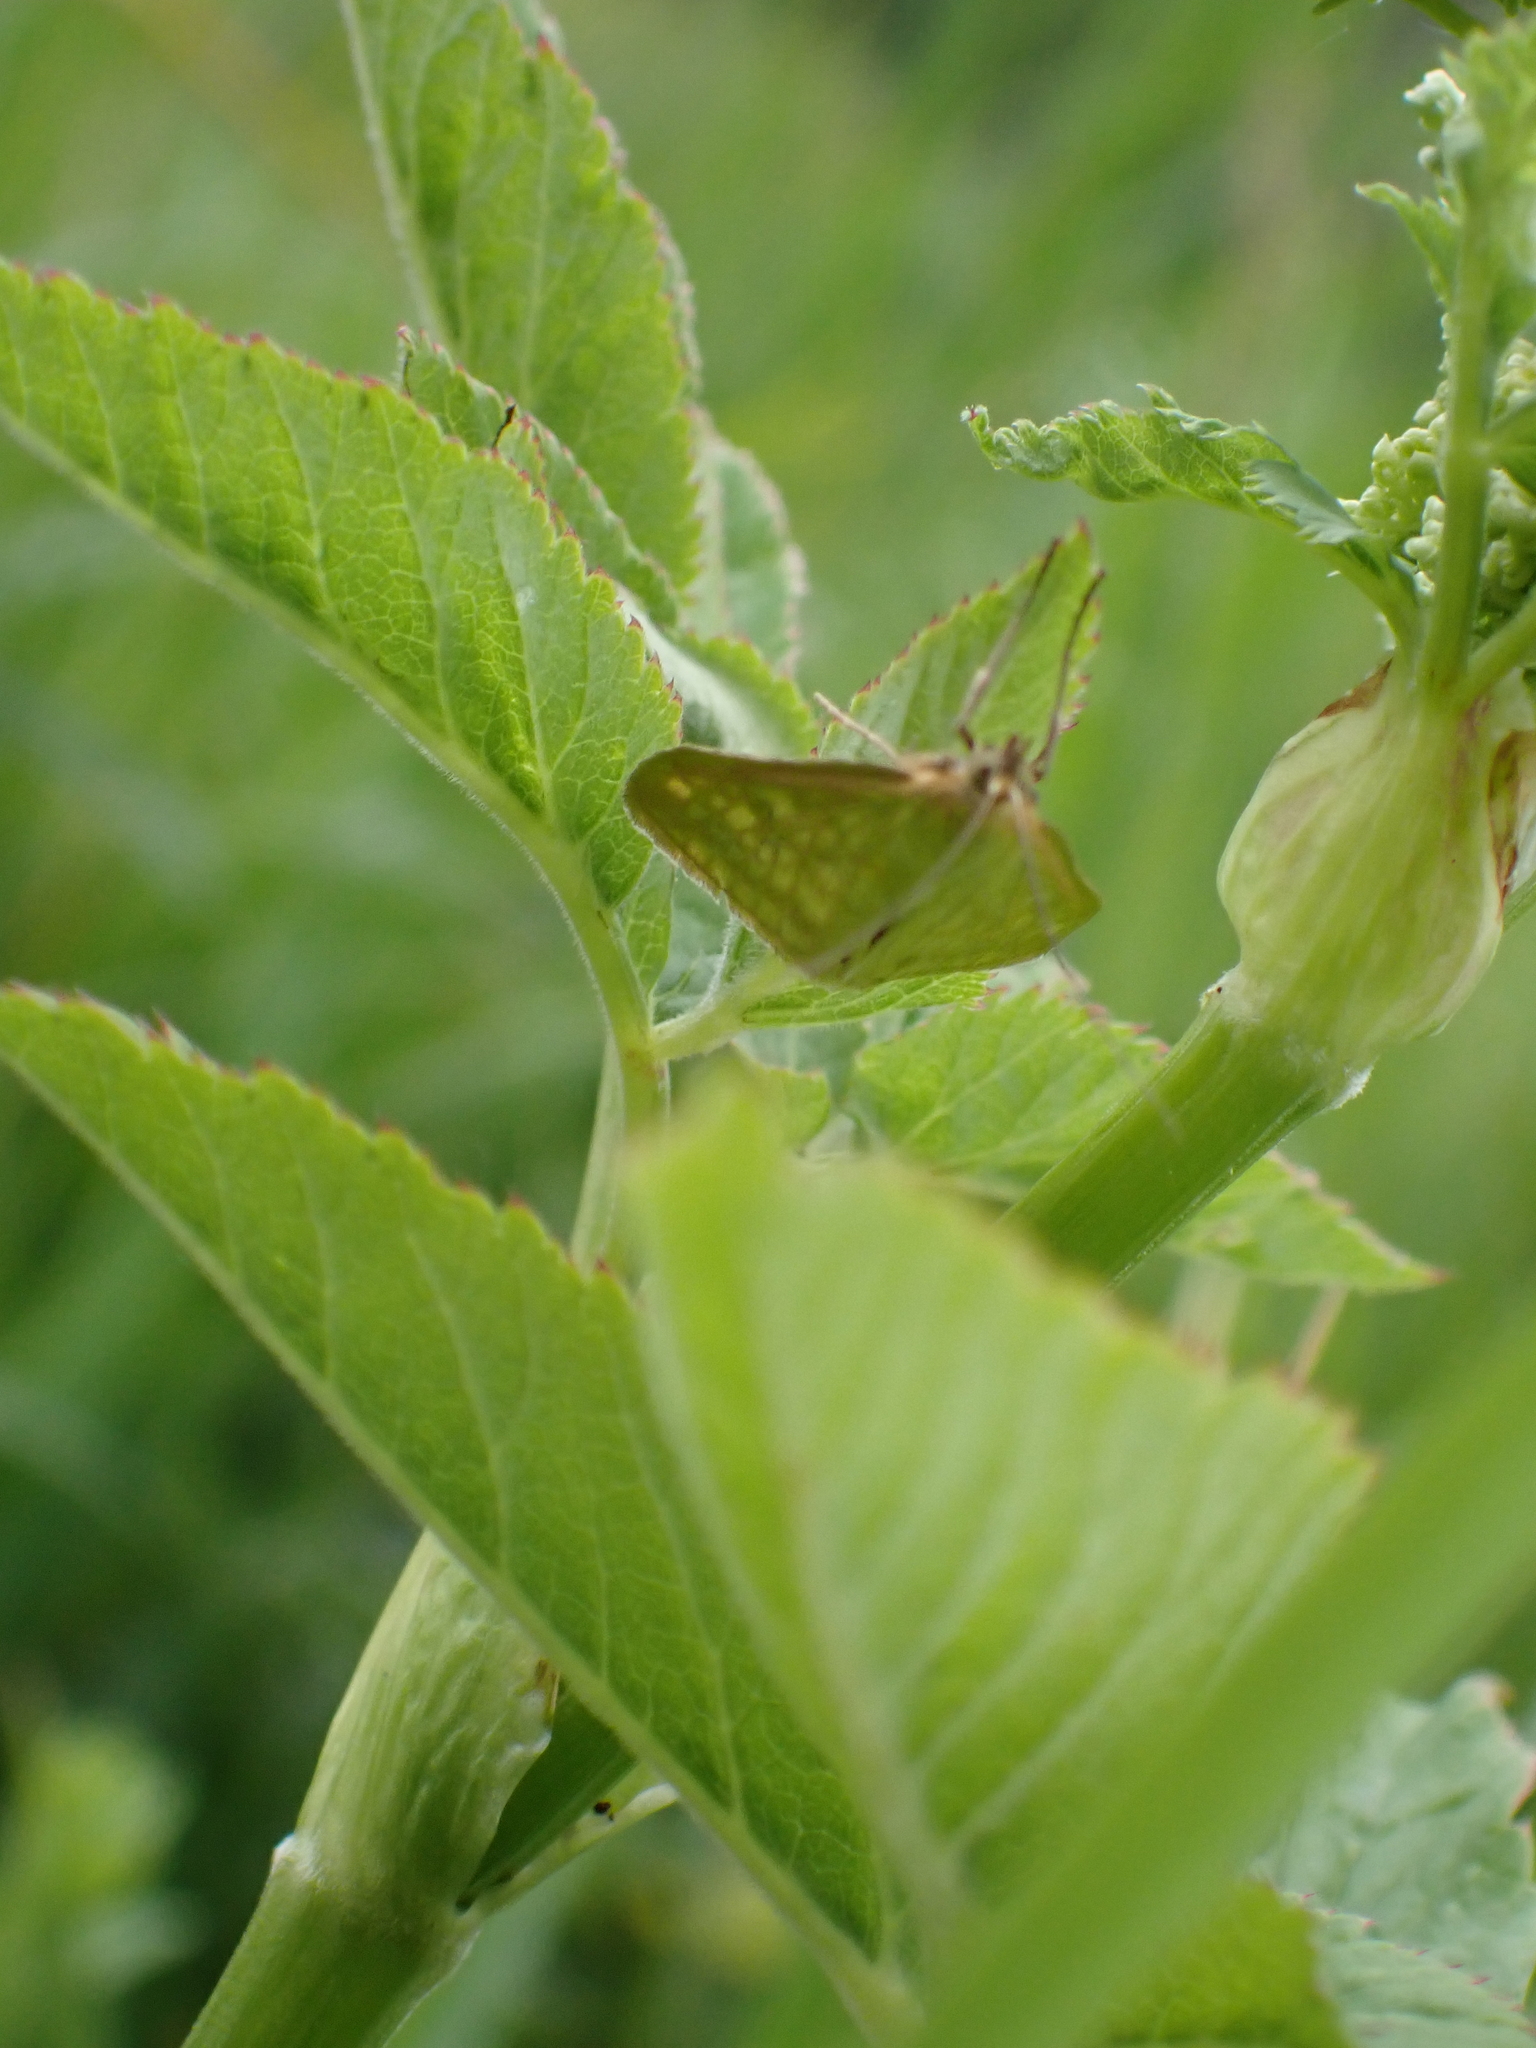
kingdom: Animalia
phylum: Arthropoda
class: Insecta
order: Lepidoptera
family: Crambidae
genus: Sitochroa
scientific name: Sitochroa verticalis
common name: Lesser pearl
